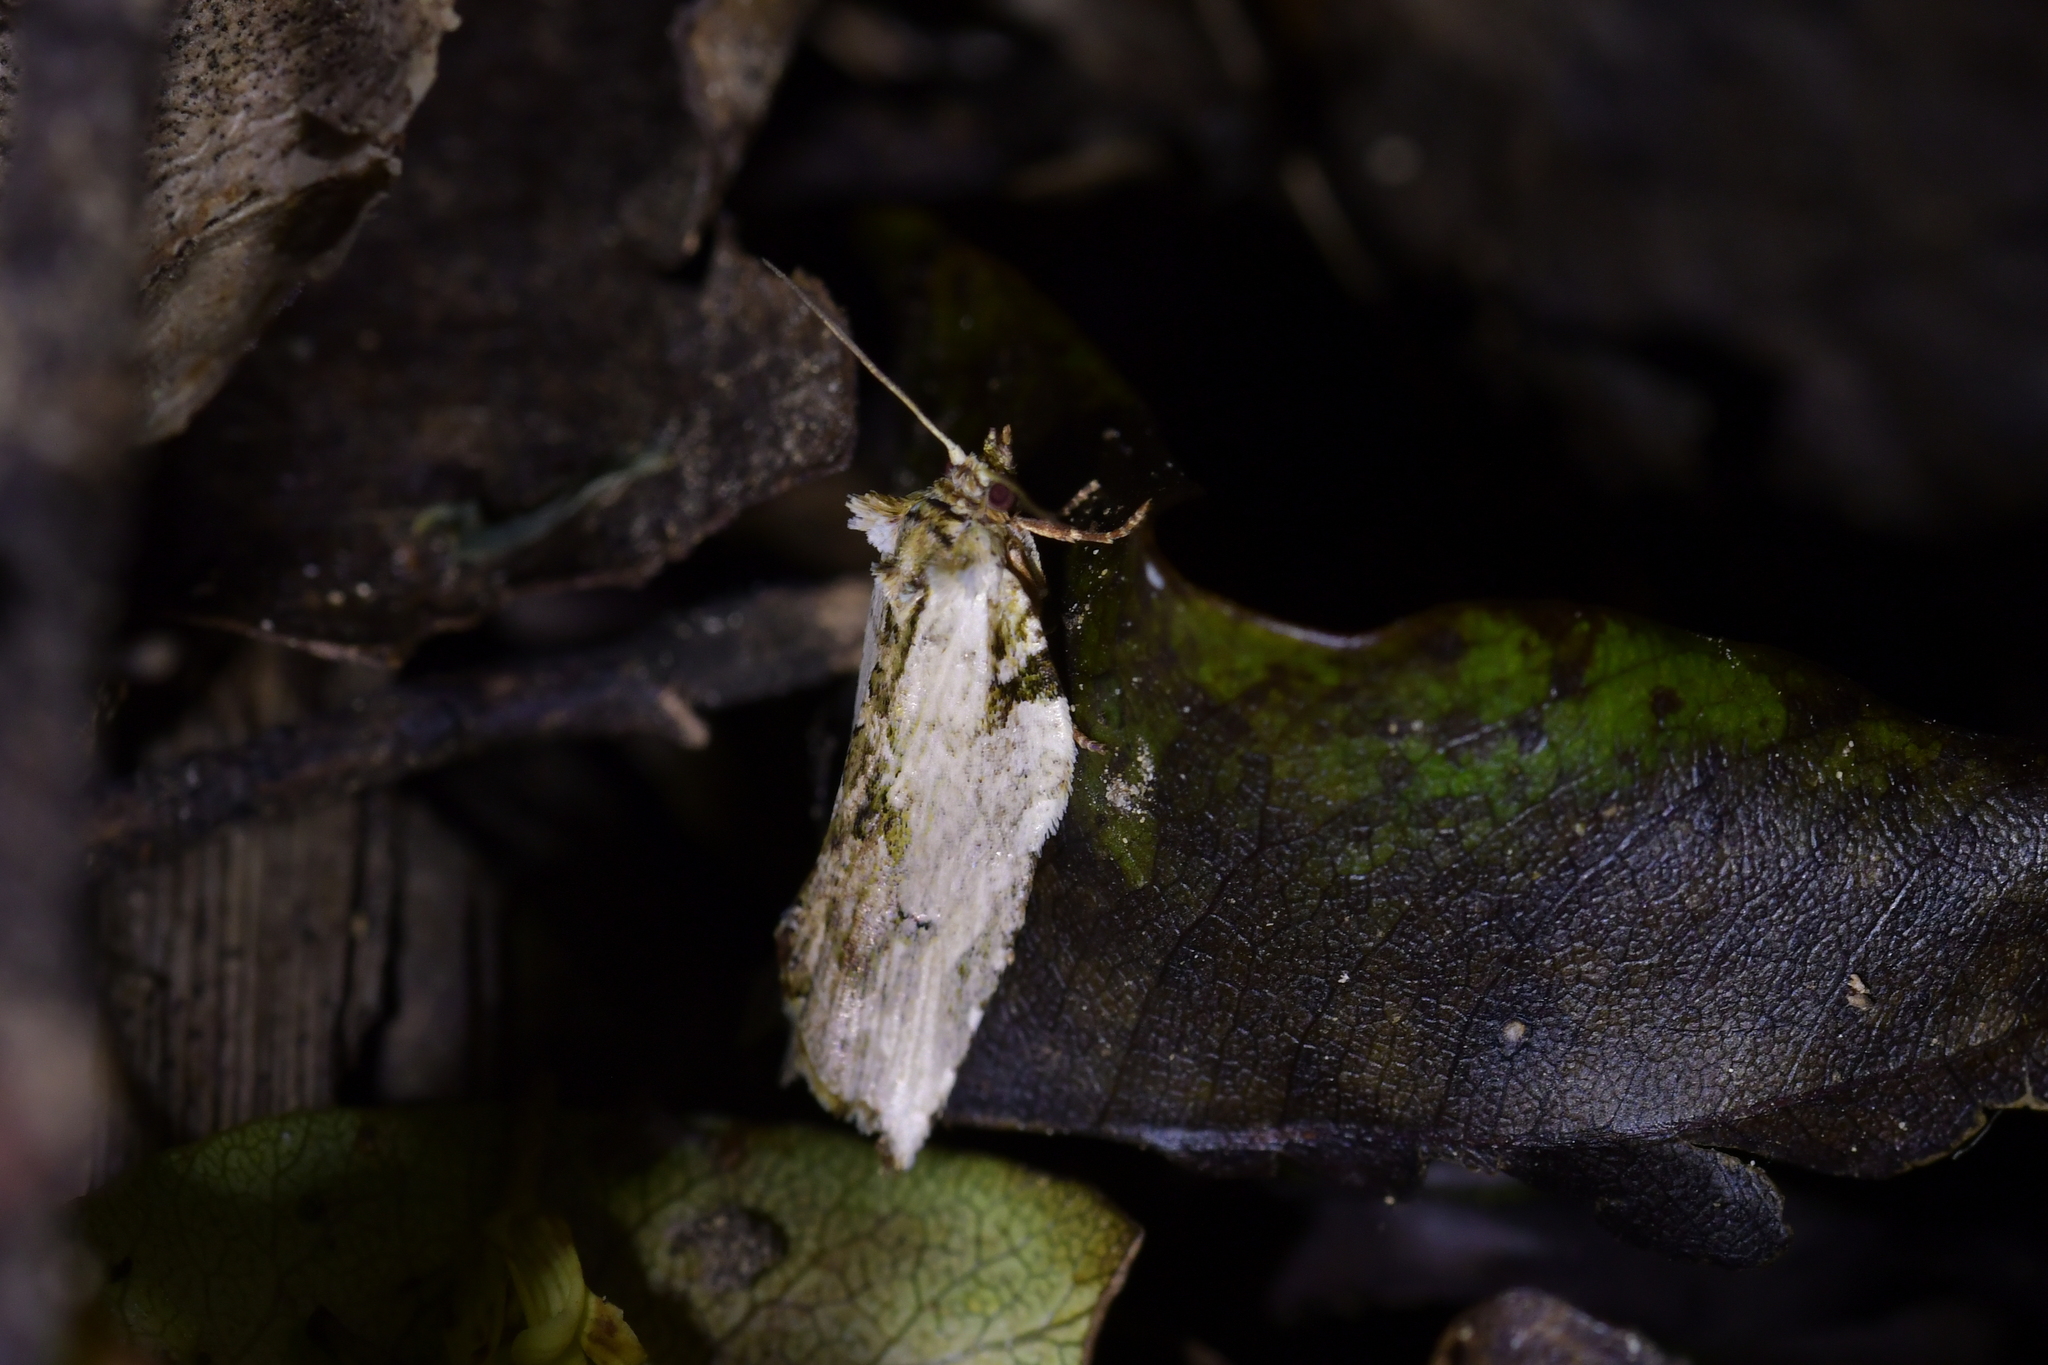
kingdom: Animalia
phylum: Arthropoda
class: Insecta
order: Lepidoptera
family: Tortricidae
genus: Epalxiphora
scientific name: Epalxiphora axenana
